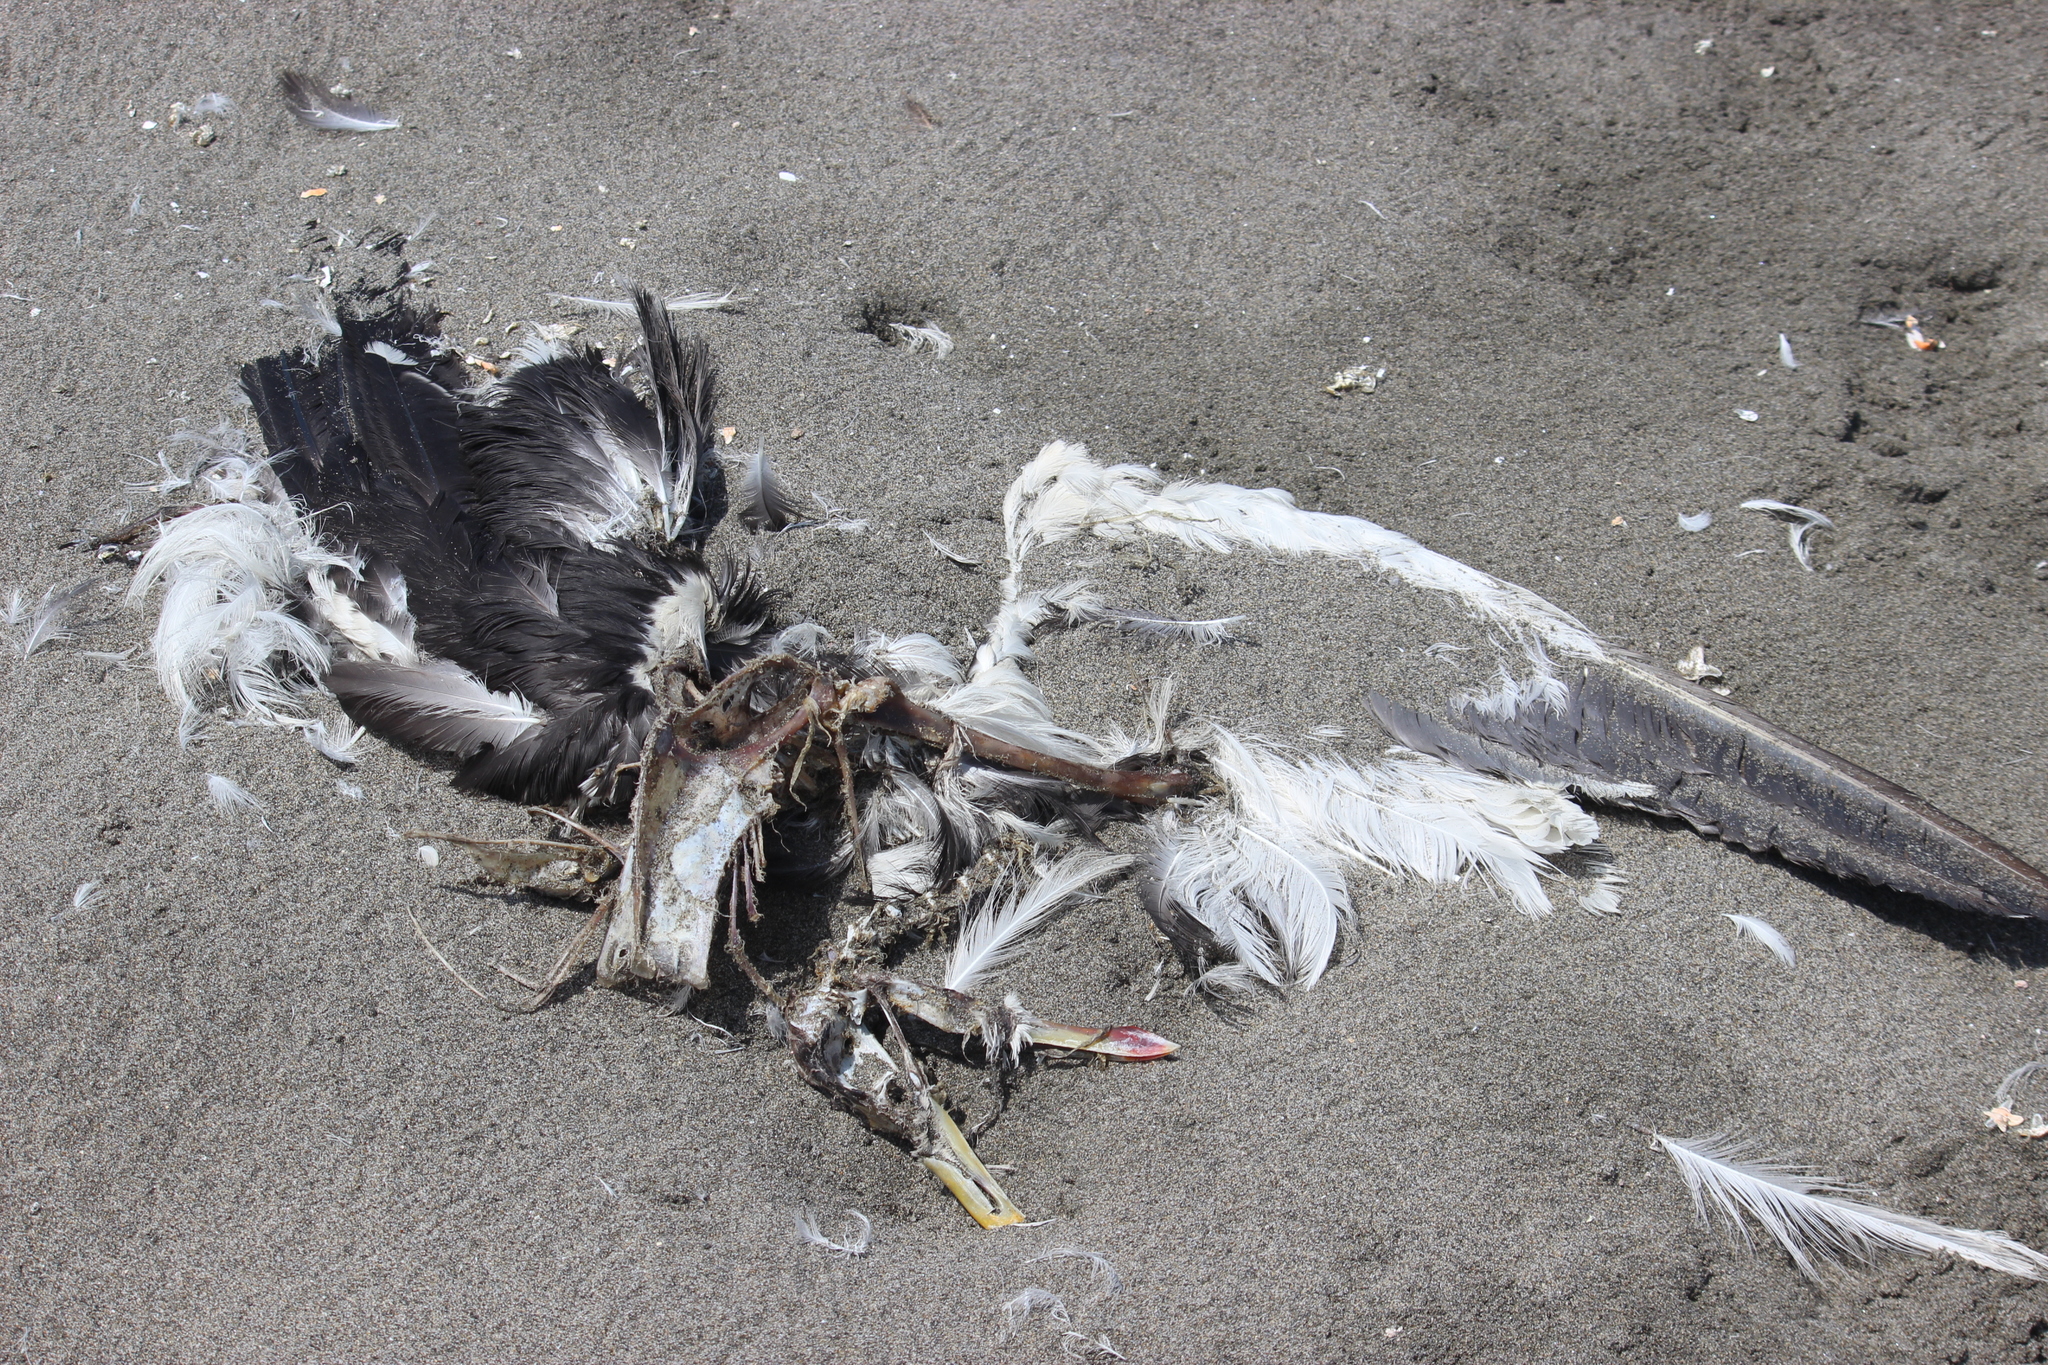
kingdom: Animalia
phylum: Chordata
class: Aves
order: Charadriiformes
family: Laridae
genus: Larus
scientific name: Larus dominicanus
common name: Kelp gull
